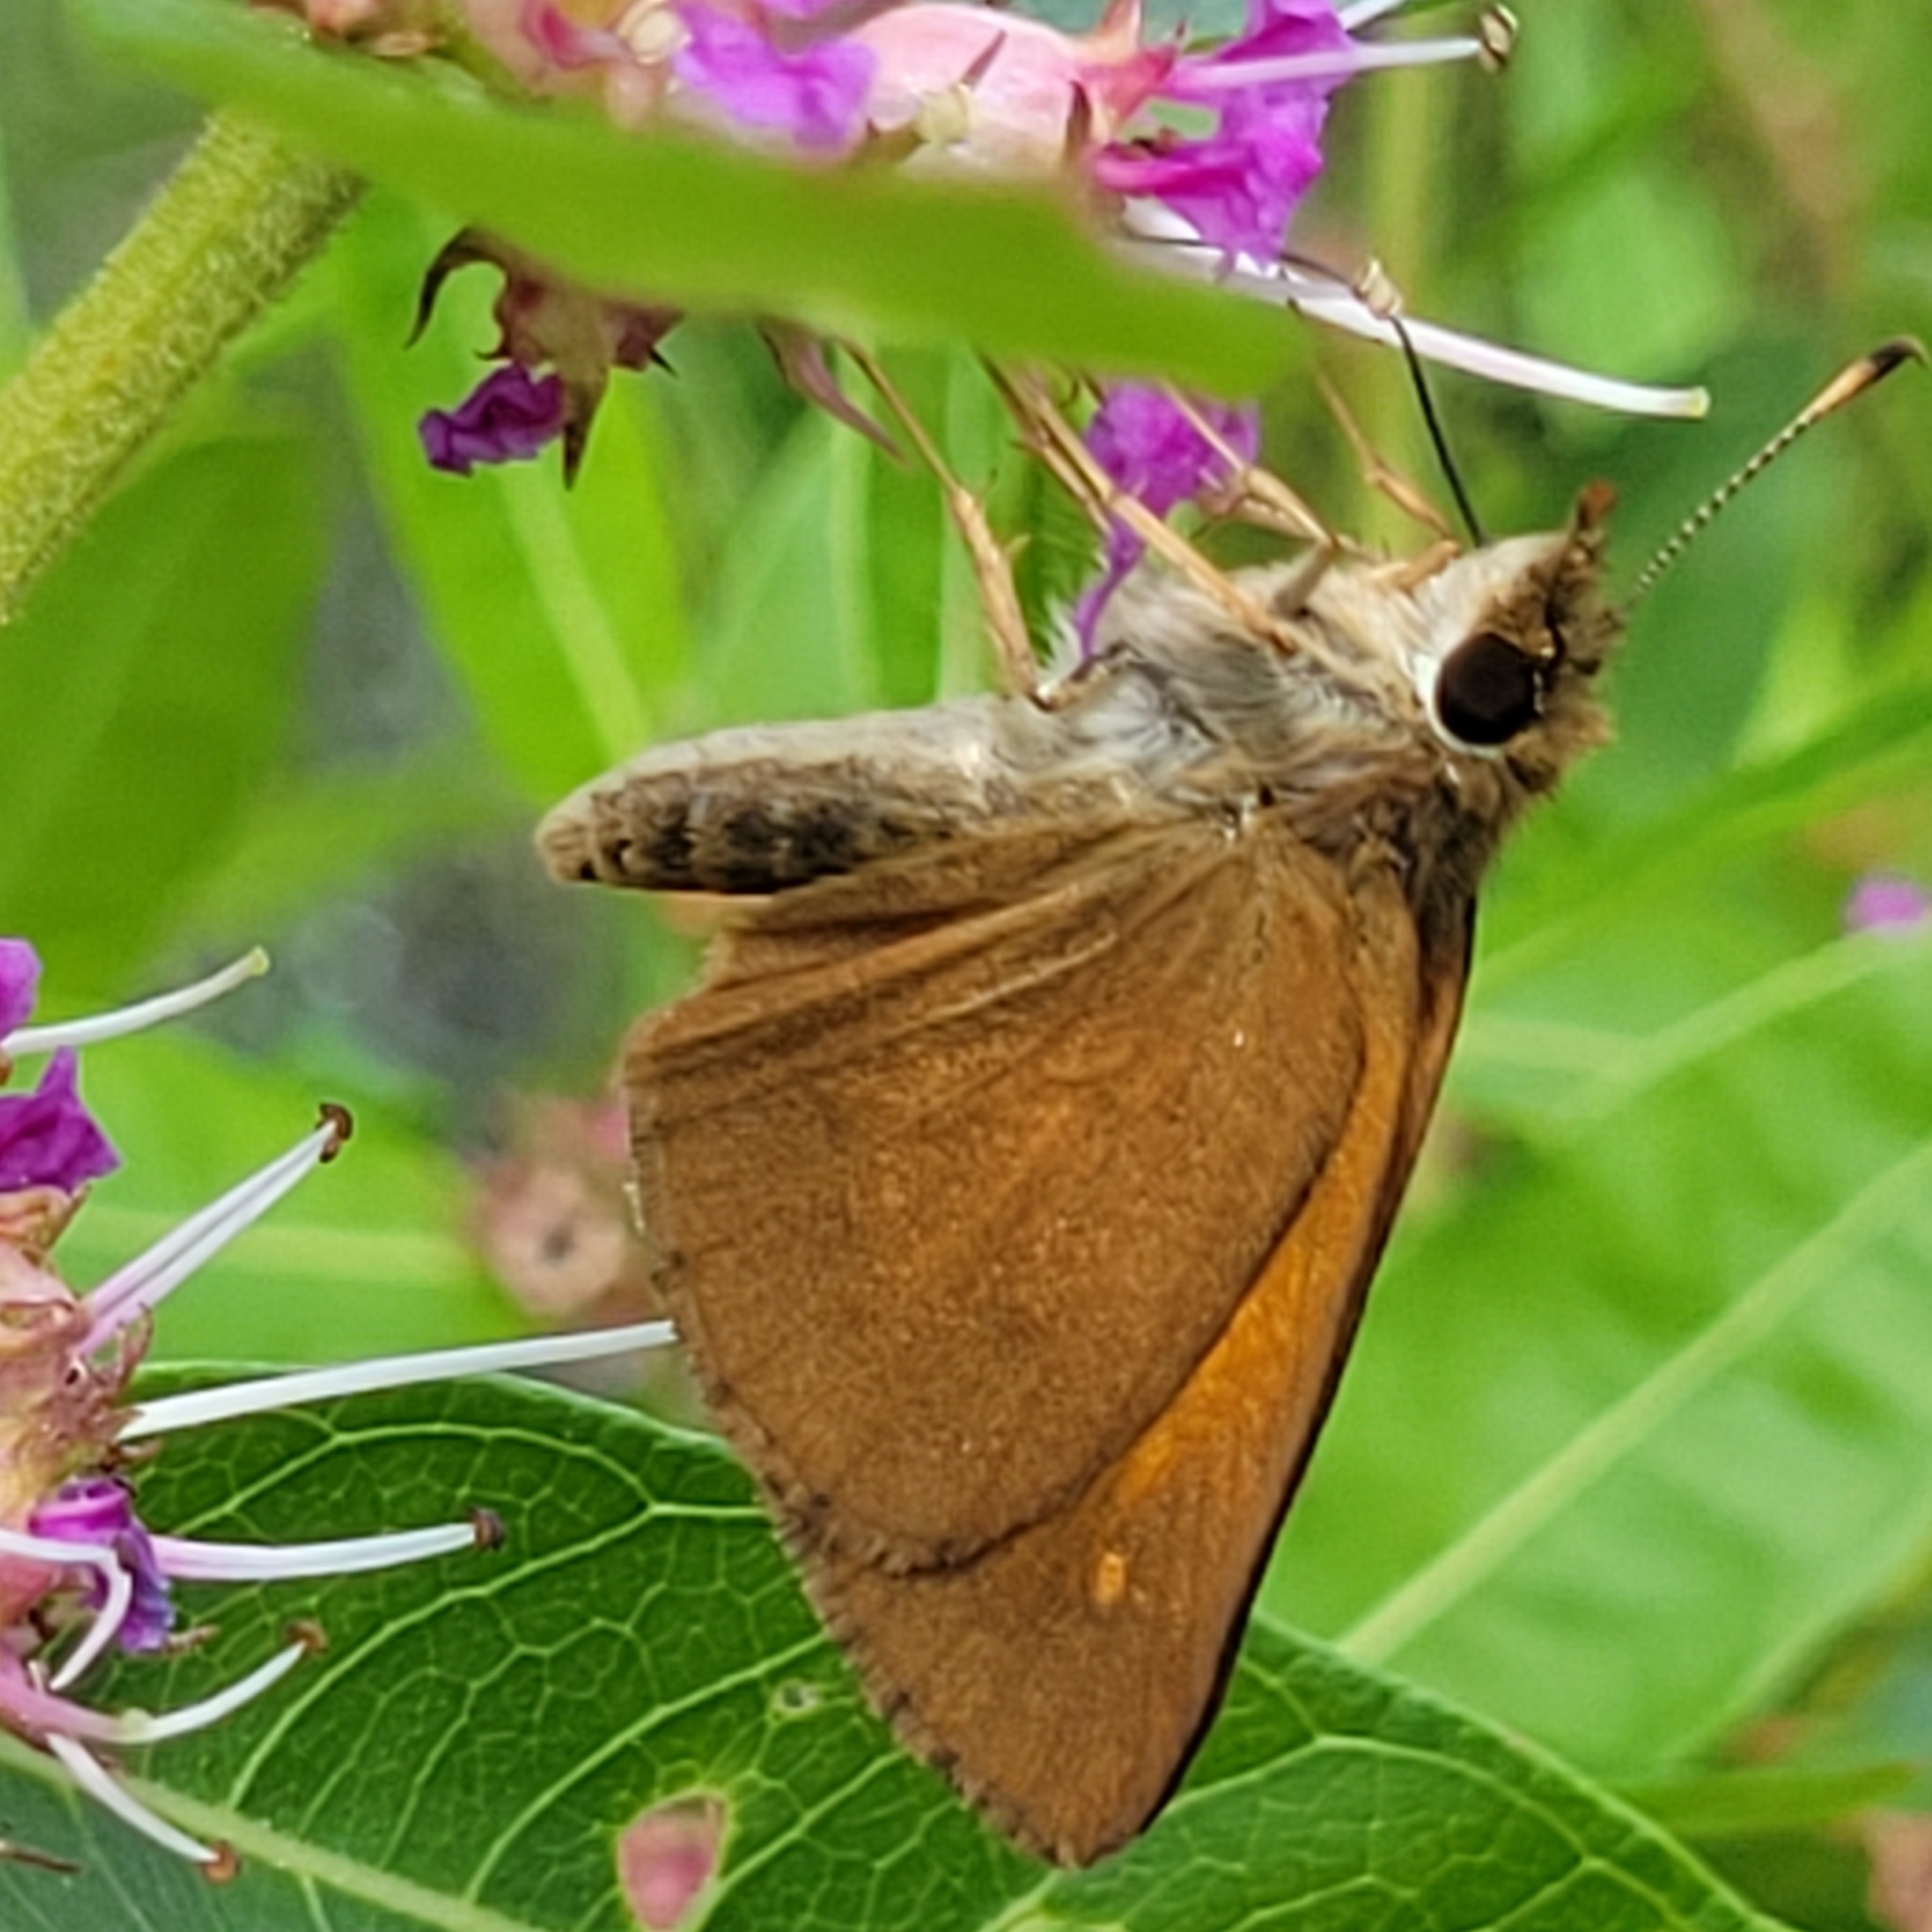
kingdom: Animalia
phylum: Arthropoda
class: Insecta
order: Lepidoptera
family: Hesperiidae
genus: Poanes
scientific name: Poanes viator
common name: Broad-winged skipper
